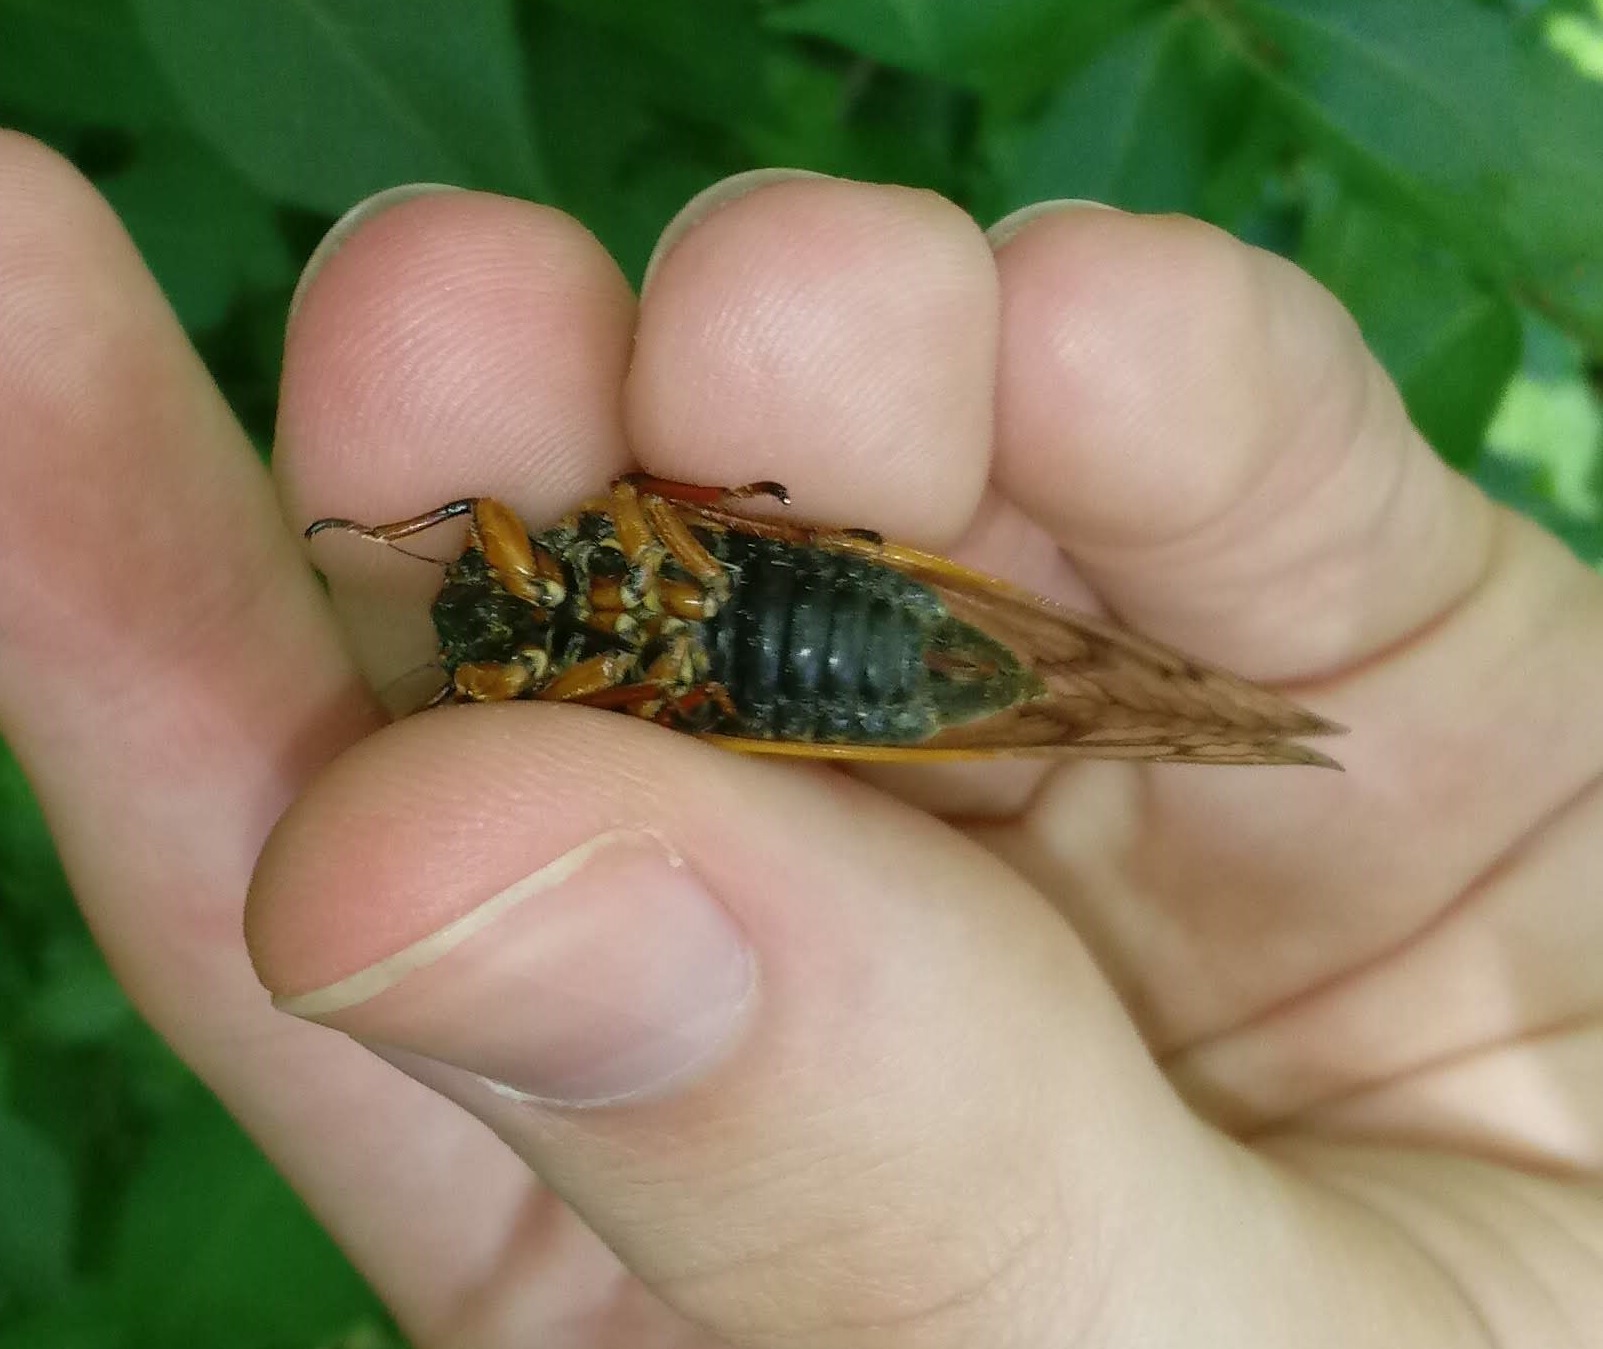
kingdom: Animalia
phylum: Arthropoda
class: Insecta
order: Hemiptera
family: Cicadidae
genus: Magicicada
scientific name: Magicicada cassini
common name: Cassin's 17-year cicada
